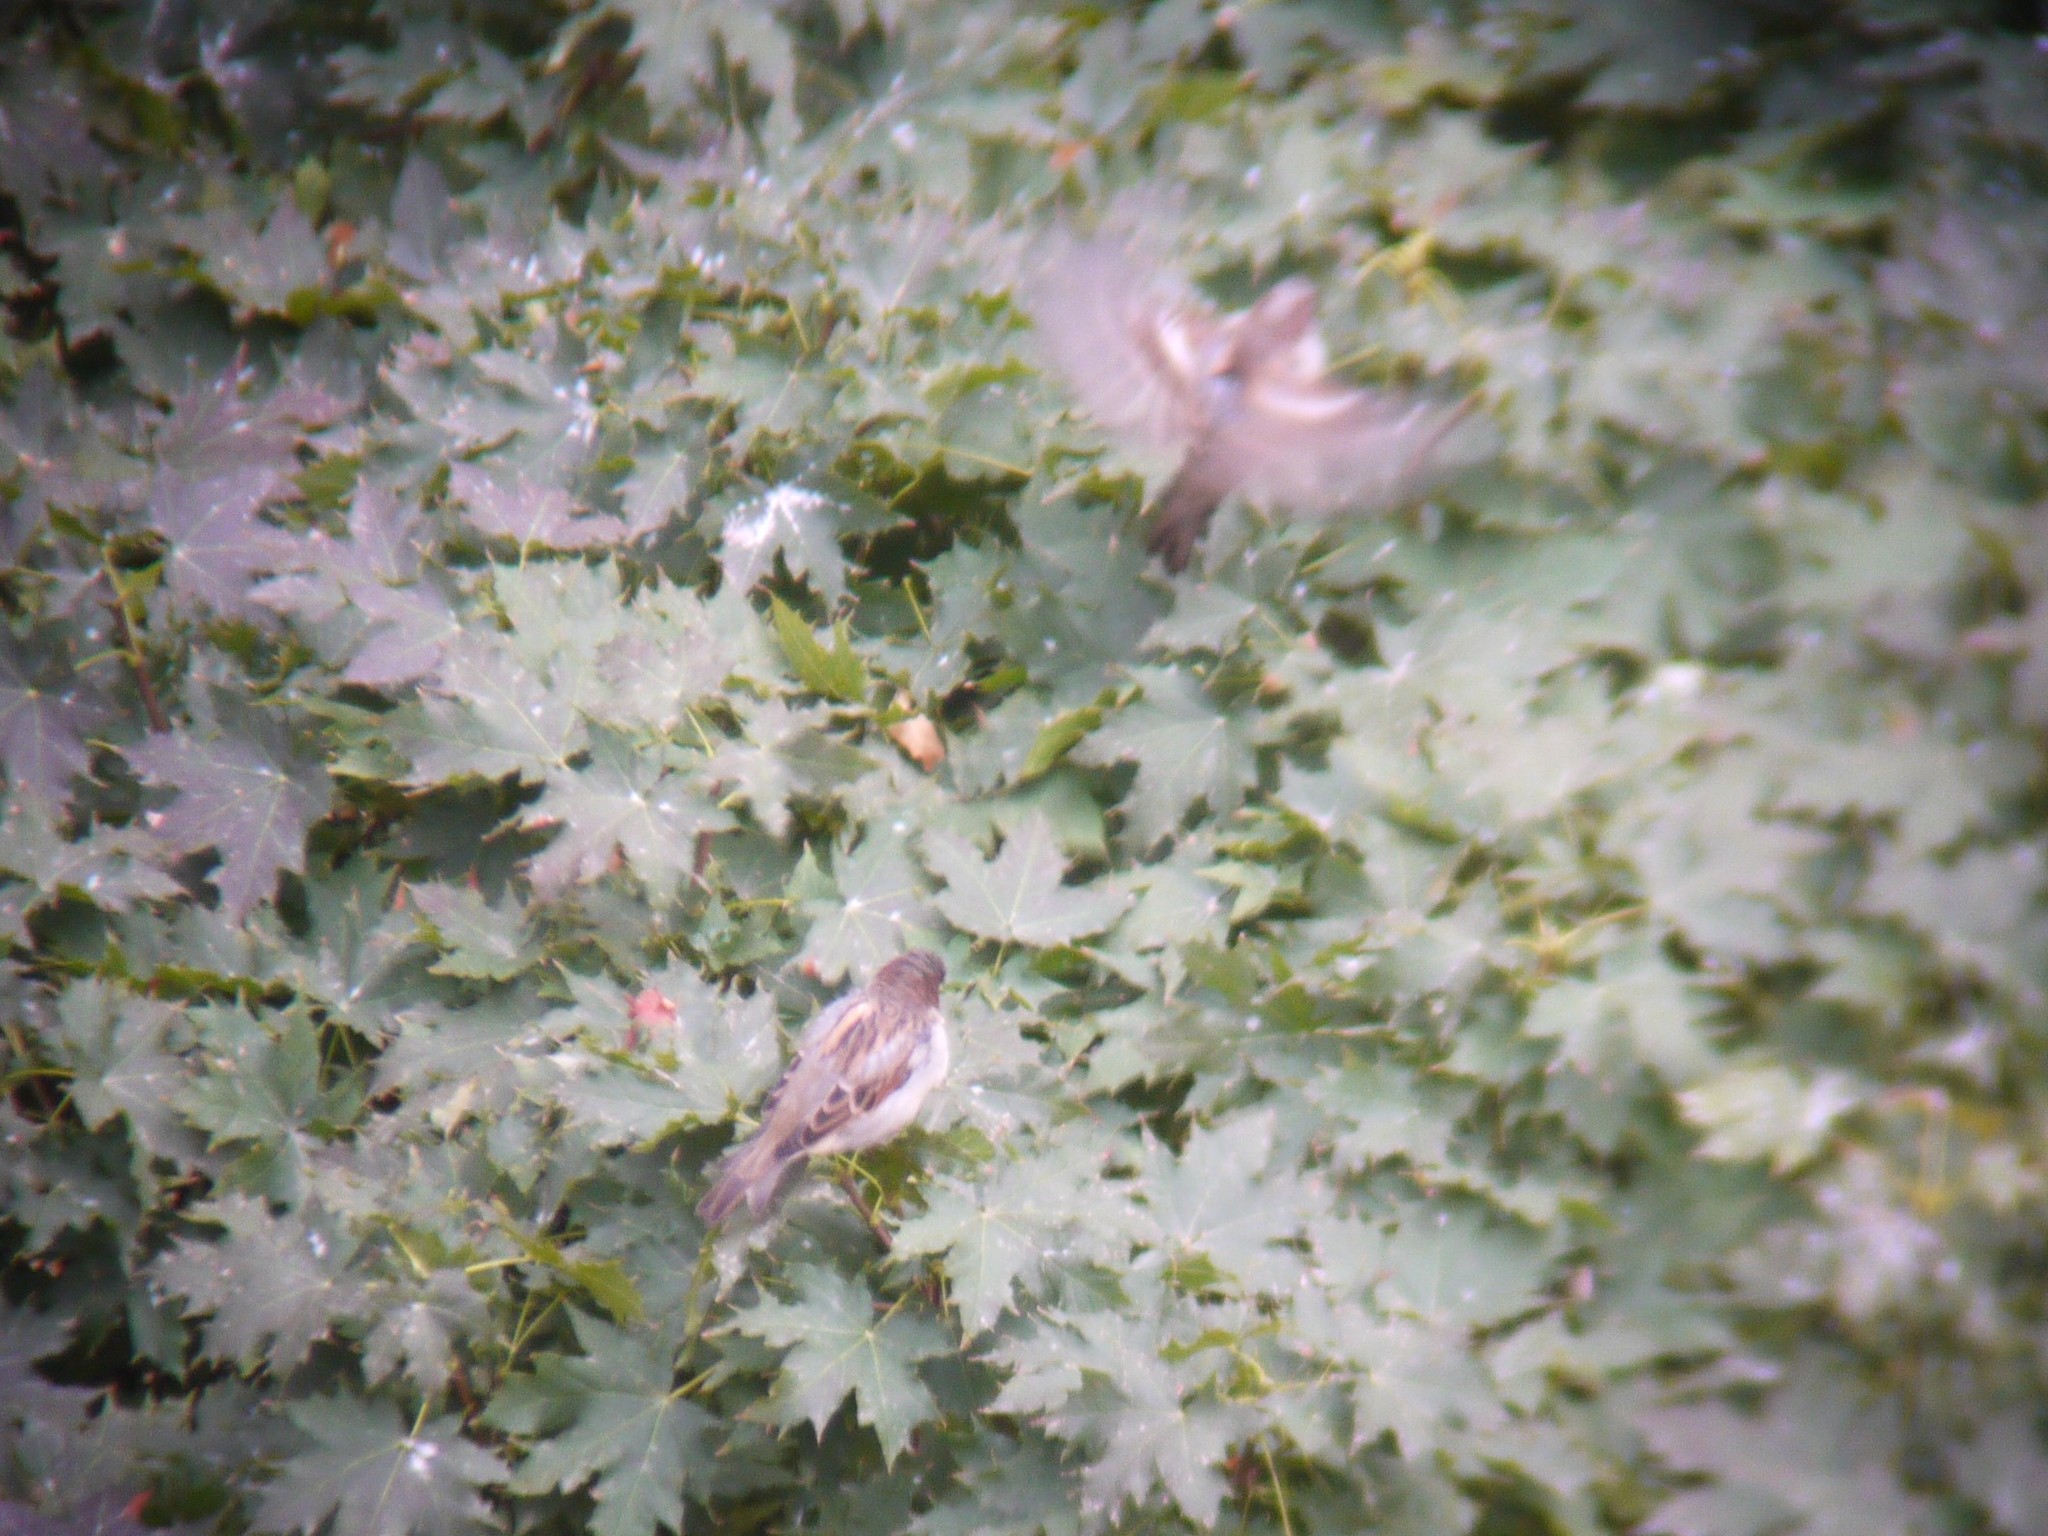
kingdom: Animalia
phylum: Chordata
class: Aves
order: Passeriformes
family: Passeridae
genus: Passer
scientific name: Passer domesticus
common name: House sparrow
